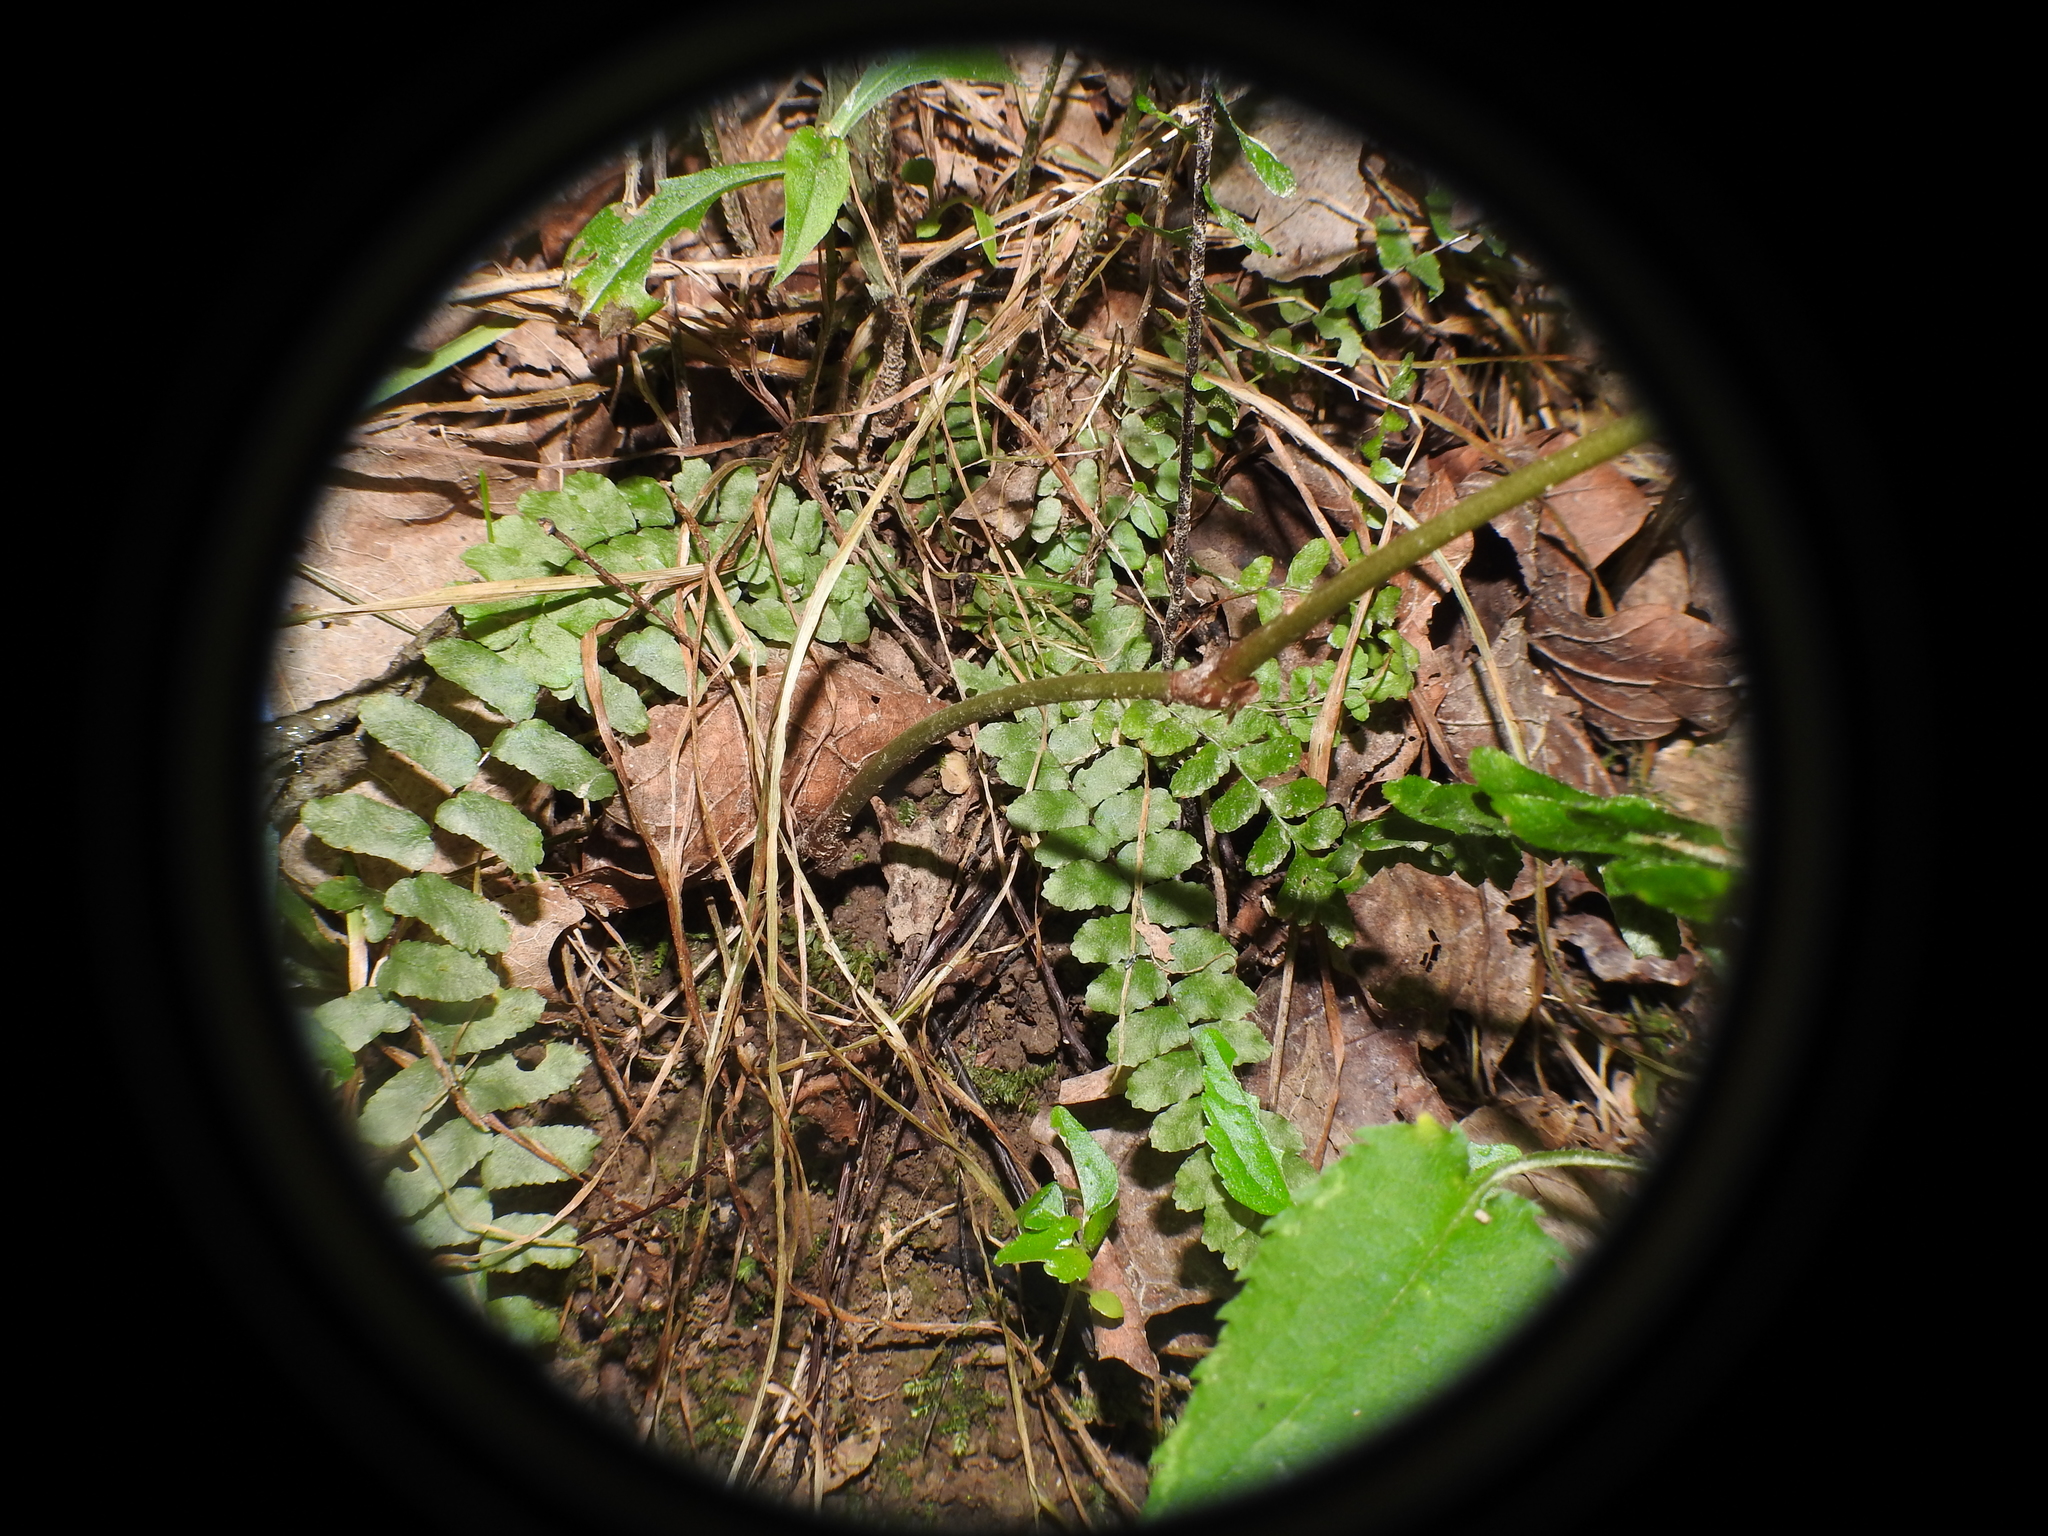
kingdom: Plantae
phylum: Tracheophyta
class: Polypodiopsida
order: Polypodiales
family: Aspleniaceae
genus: Asplenium
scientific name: Asplenium platyneuron
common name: Ebony spleenwort
